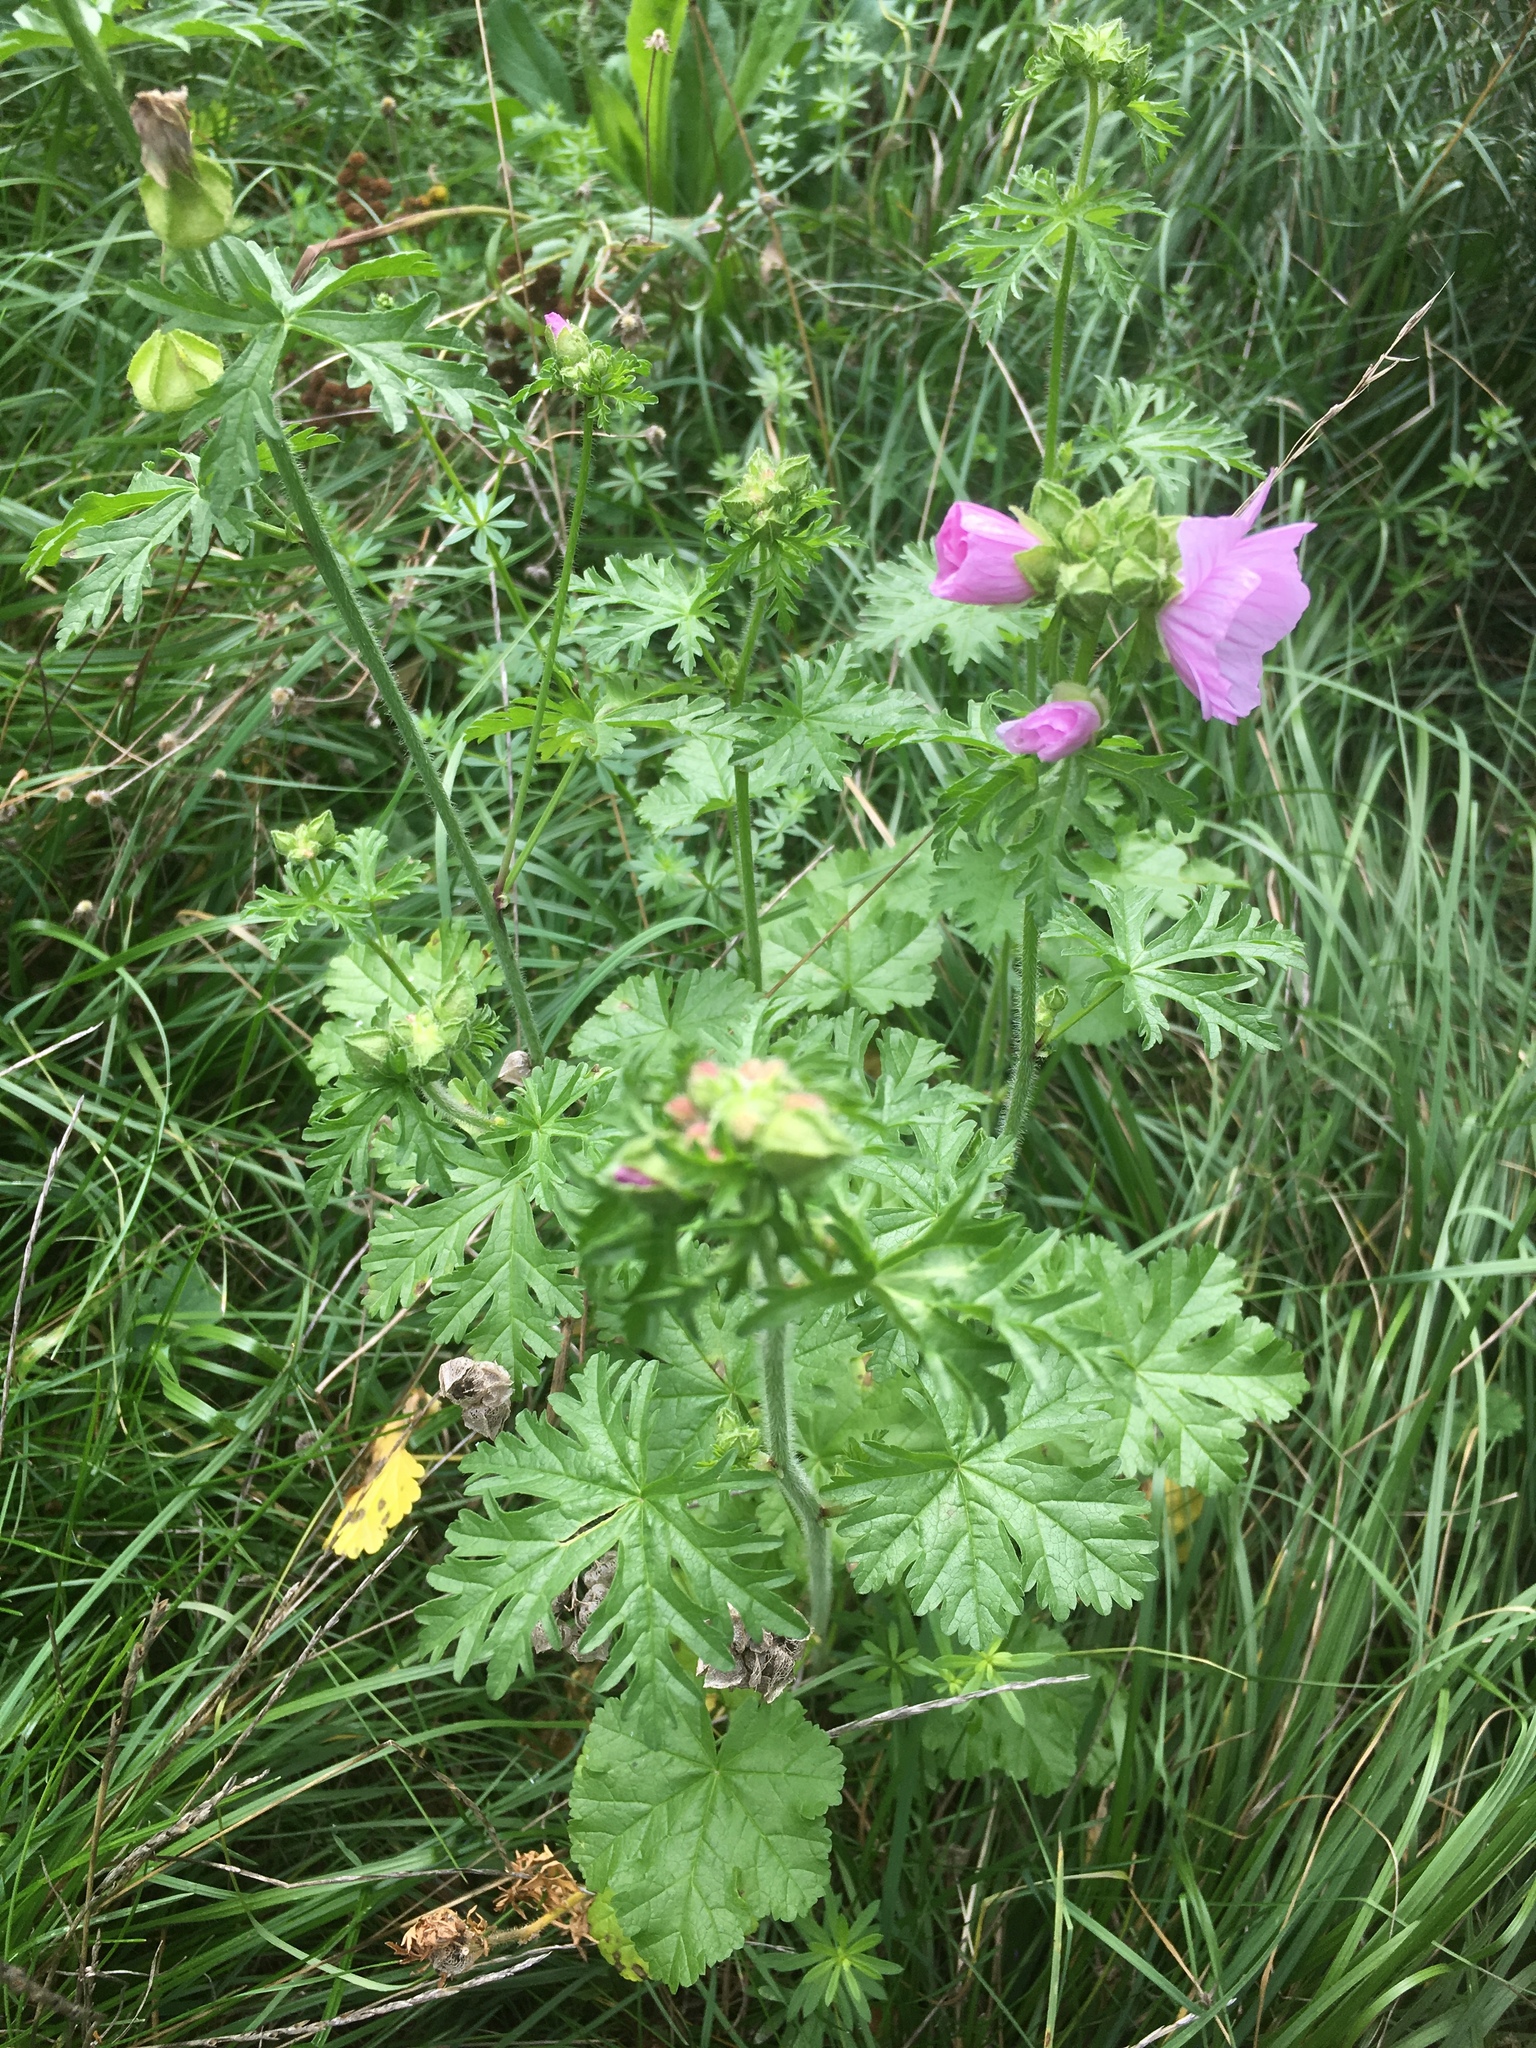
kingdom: Plantae
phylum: Tracheophyta
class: Magnoliopsida
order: Malvales
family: Malvaceae
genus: Malva
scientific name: Malva moschata
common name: Musk mallow
